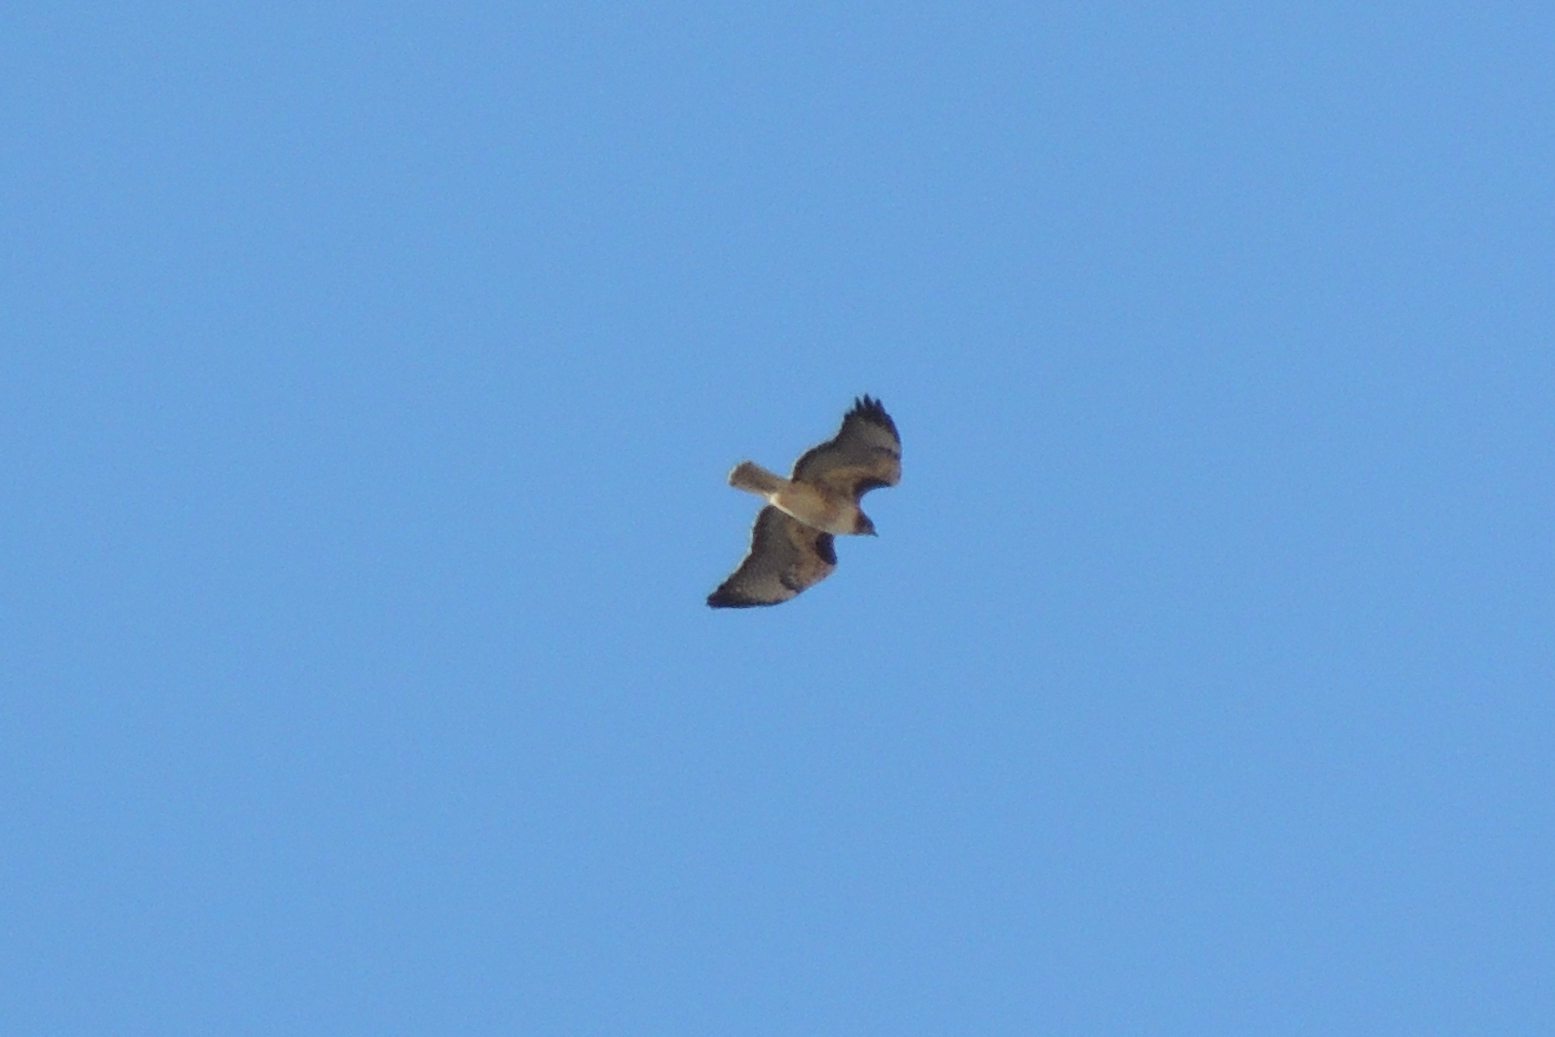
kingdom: Animalia
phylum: Chordata
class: Aves
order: Accipitriformes
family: Accipitridae
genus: Buteo
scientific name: Buteo jamaicensis
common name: Red-tailed hawk
